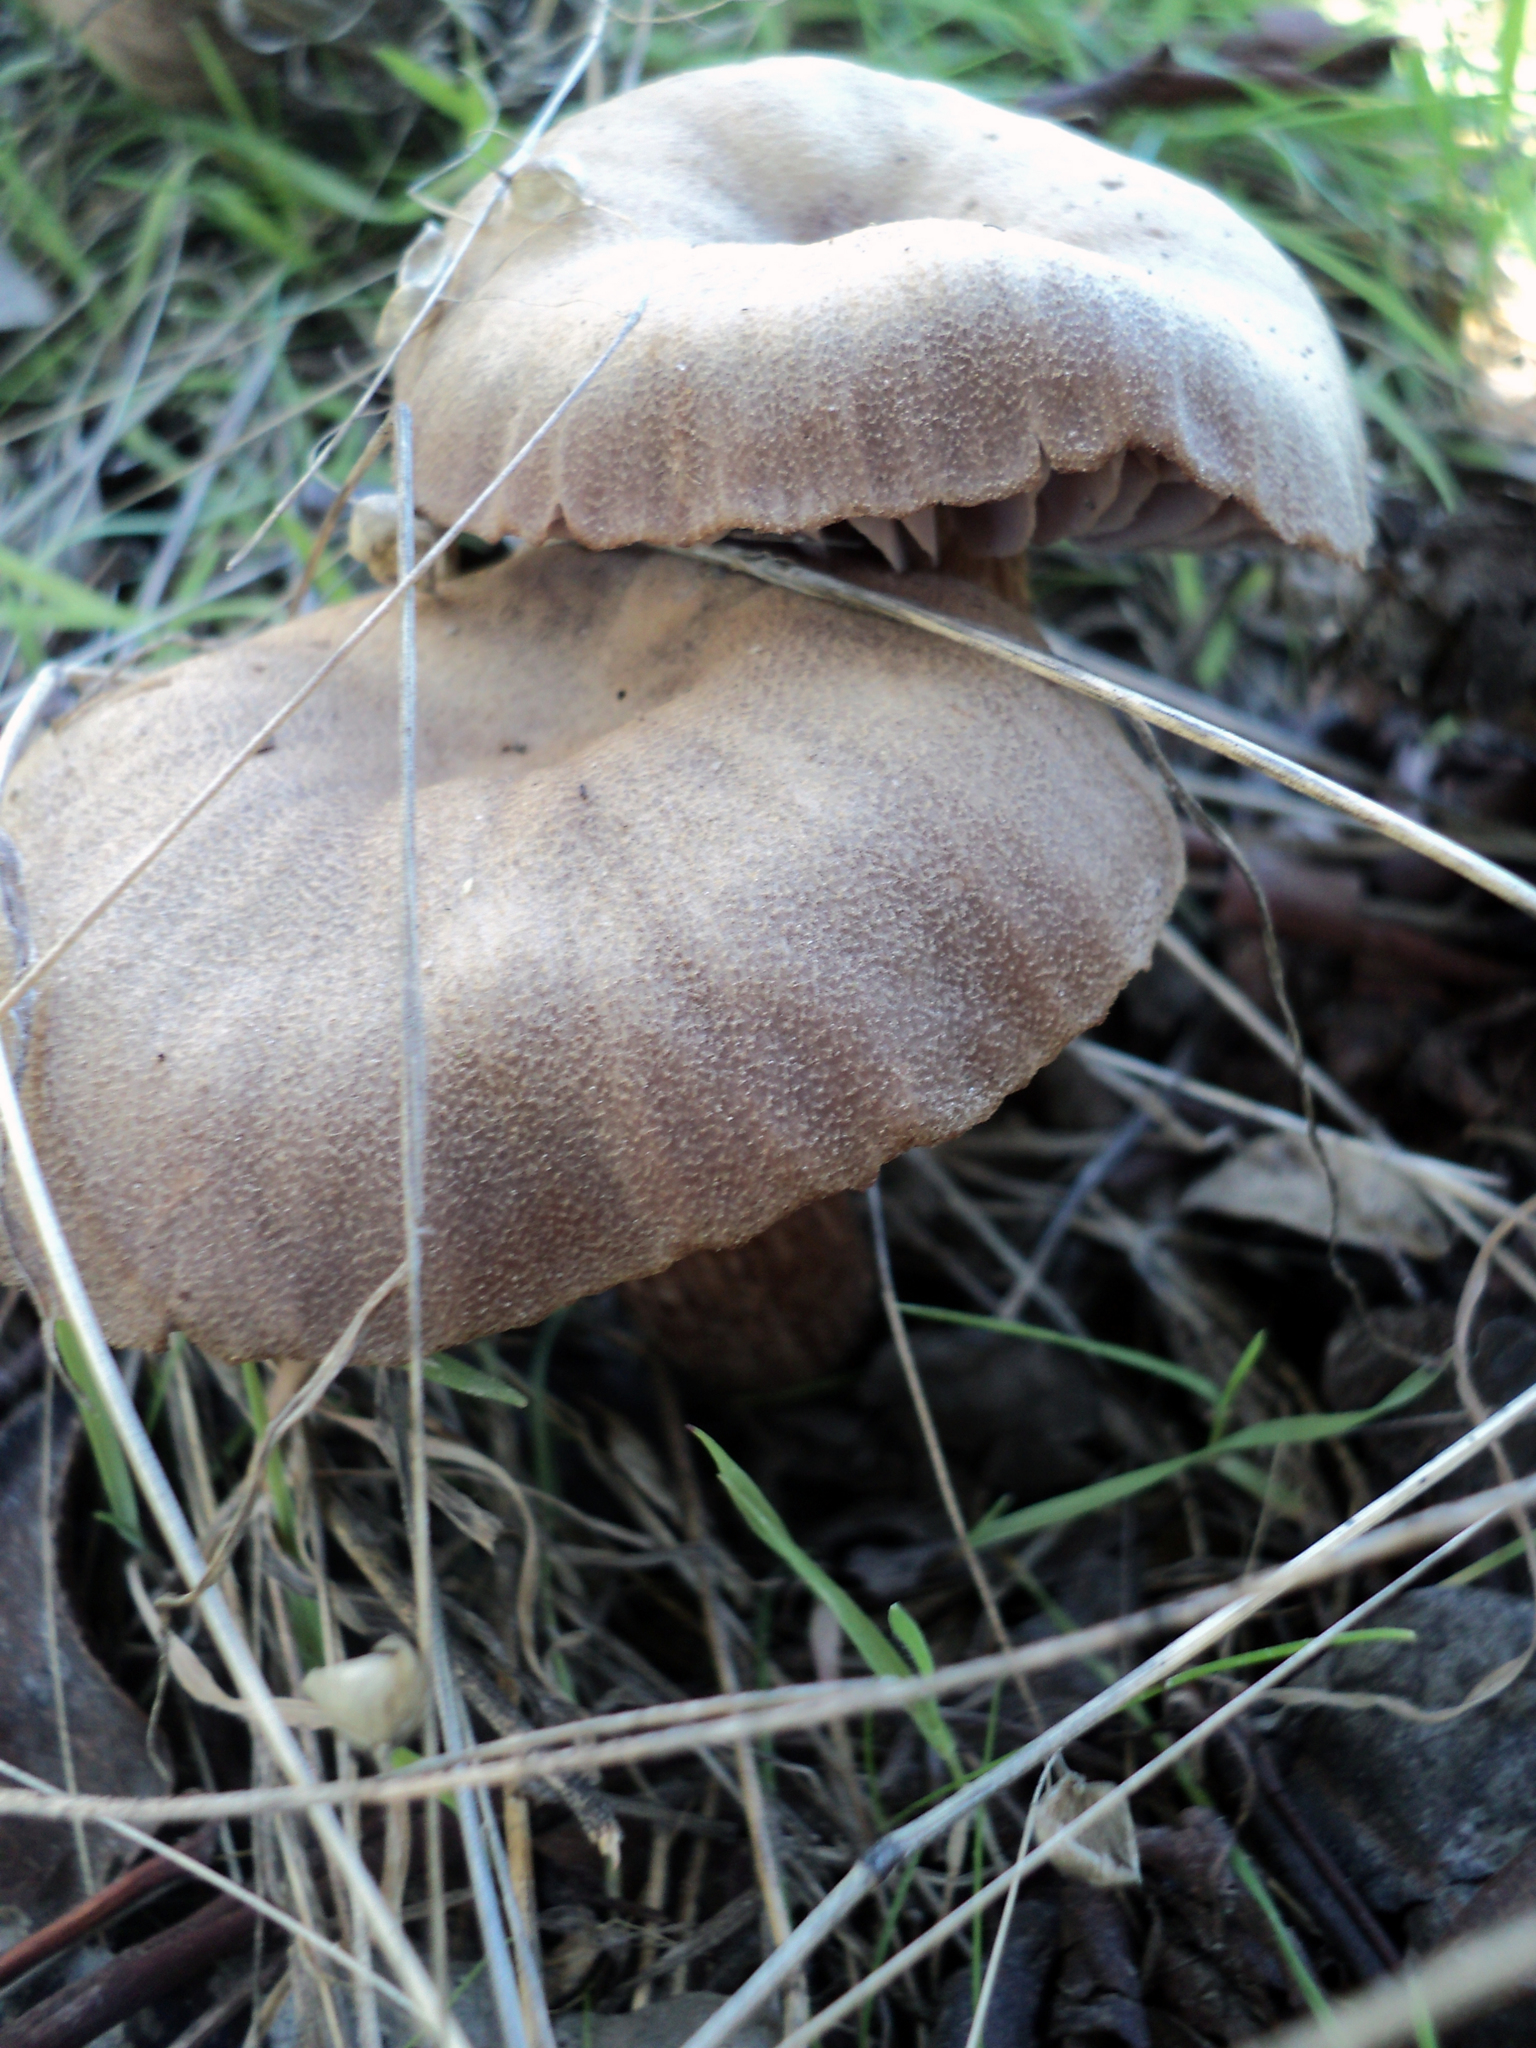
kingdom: Fungi
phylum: Basidiomycota
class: Agaricomycetes
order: Agaricales
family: Hydnangiaceae
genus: Laccaria
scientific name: Laccaria amethysteo-occidentalis
